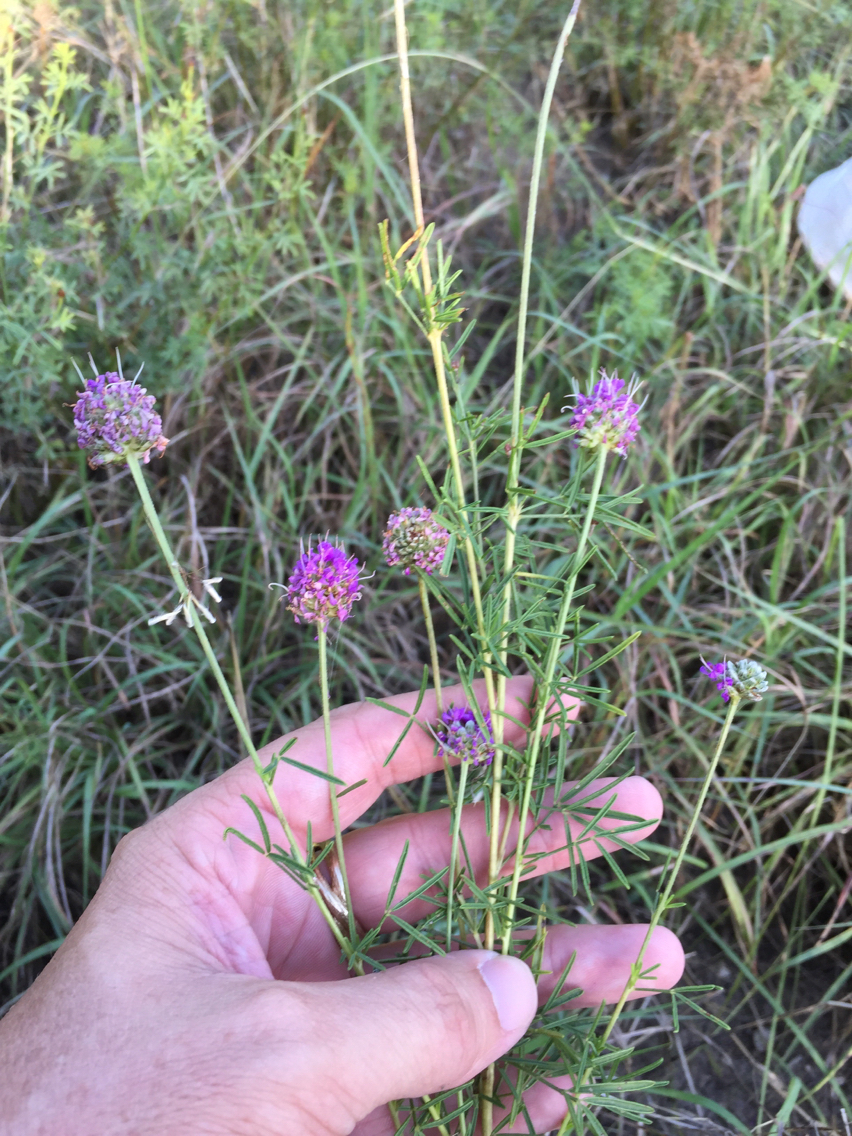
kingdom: Plantae
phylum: Tracheophyta
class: Magnoliopsida
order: Fabales
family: Fabaceae
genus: Dalea
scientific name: Dalea compacta
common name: Compact prairie-clover
